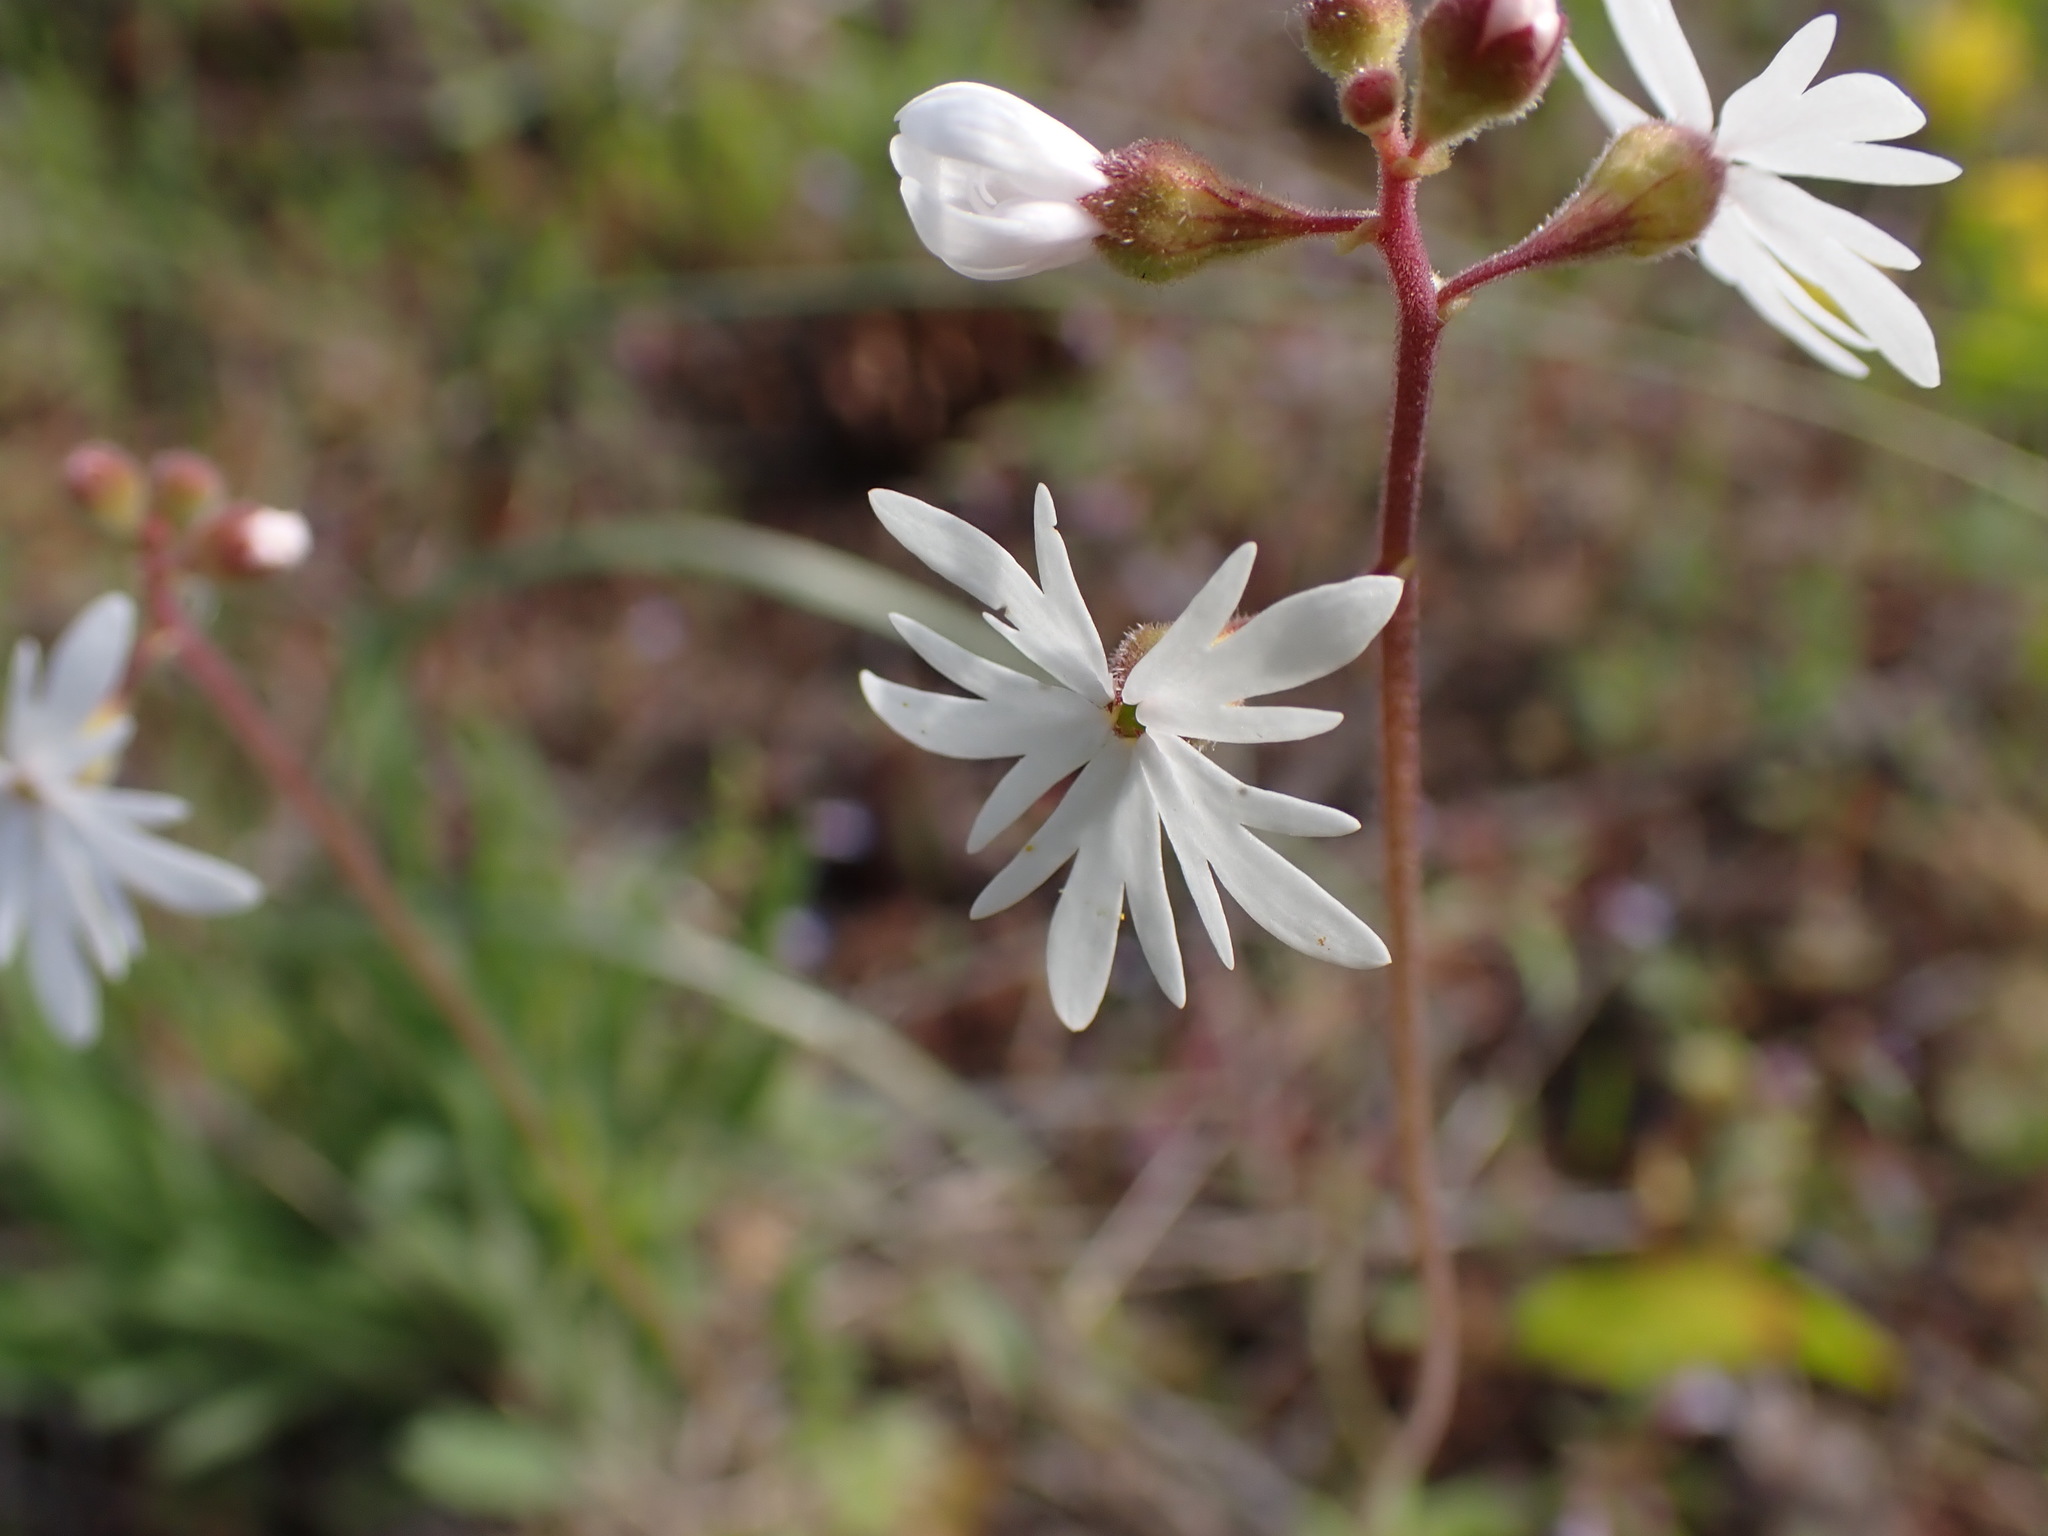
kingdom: Plantae
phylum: Tracheophyta
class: Magnoliopsida
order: Saxifragales
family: Saxifragaceae
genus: Lithophragma
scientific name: Lithophragma parviflorum
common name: Small-flowered fringe-cup
